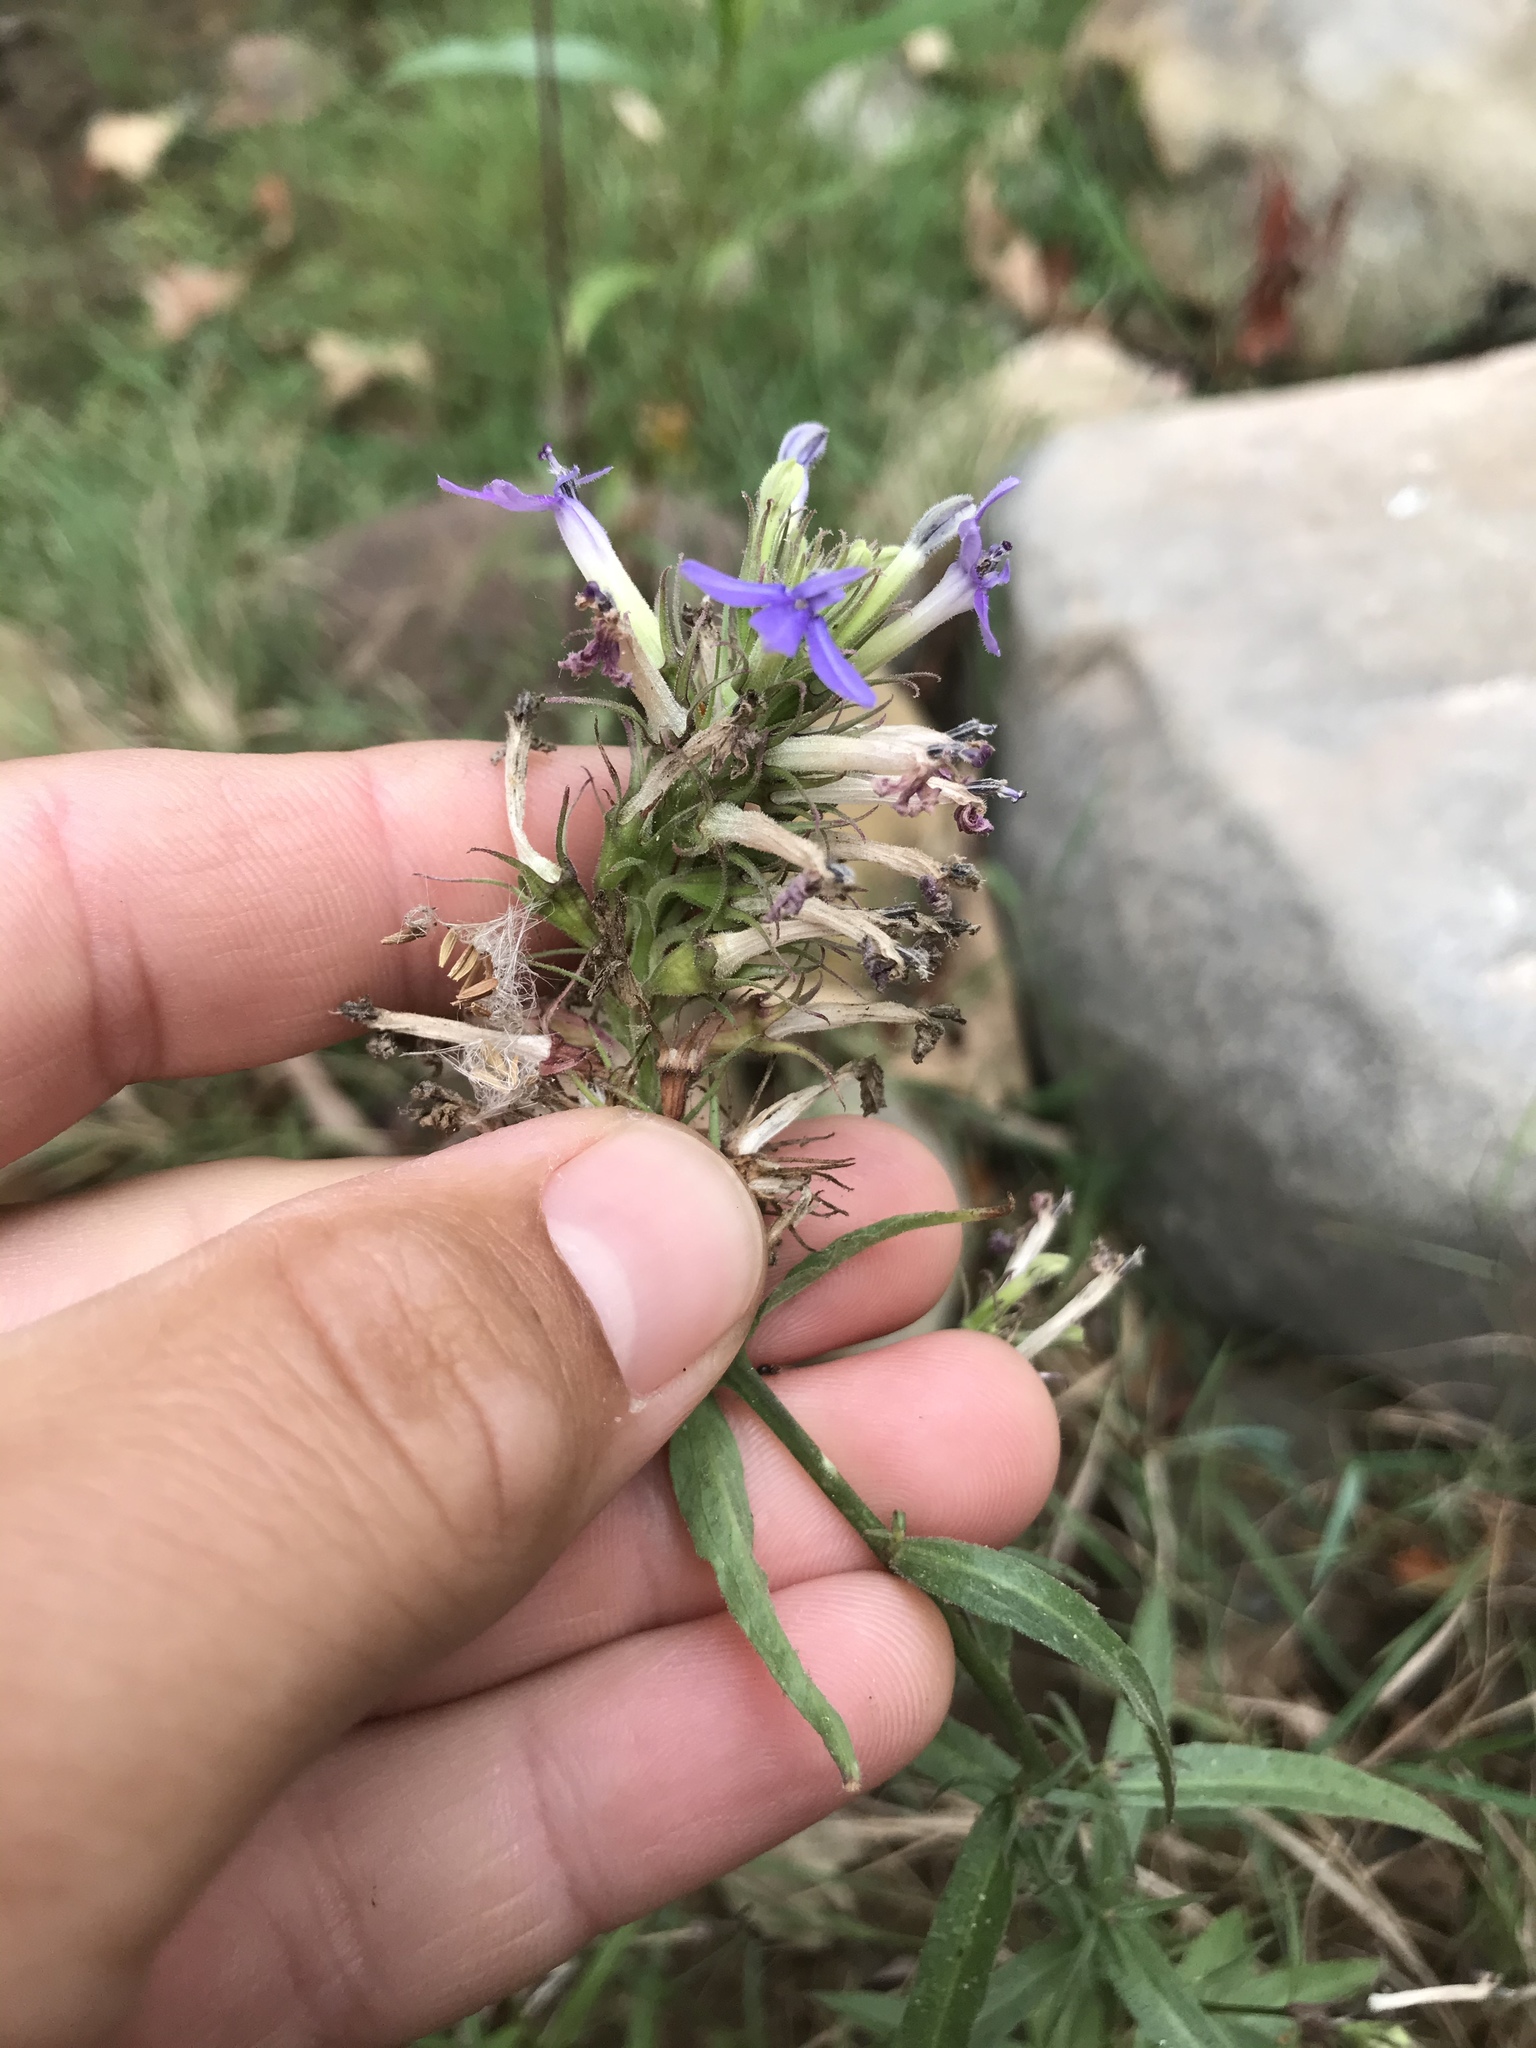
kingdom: Plantae
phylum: Tracheophyta
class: Magnoliopsida
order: Asterales
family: Campanulaceae
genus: Palmerella
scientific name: Palmerella debilis
